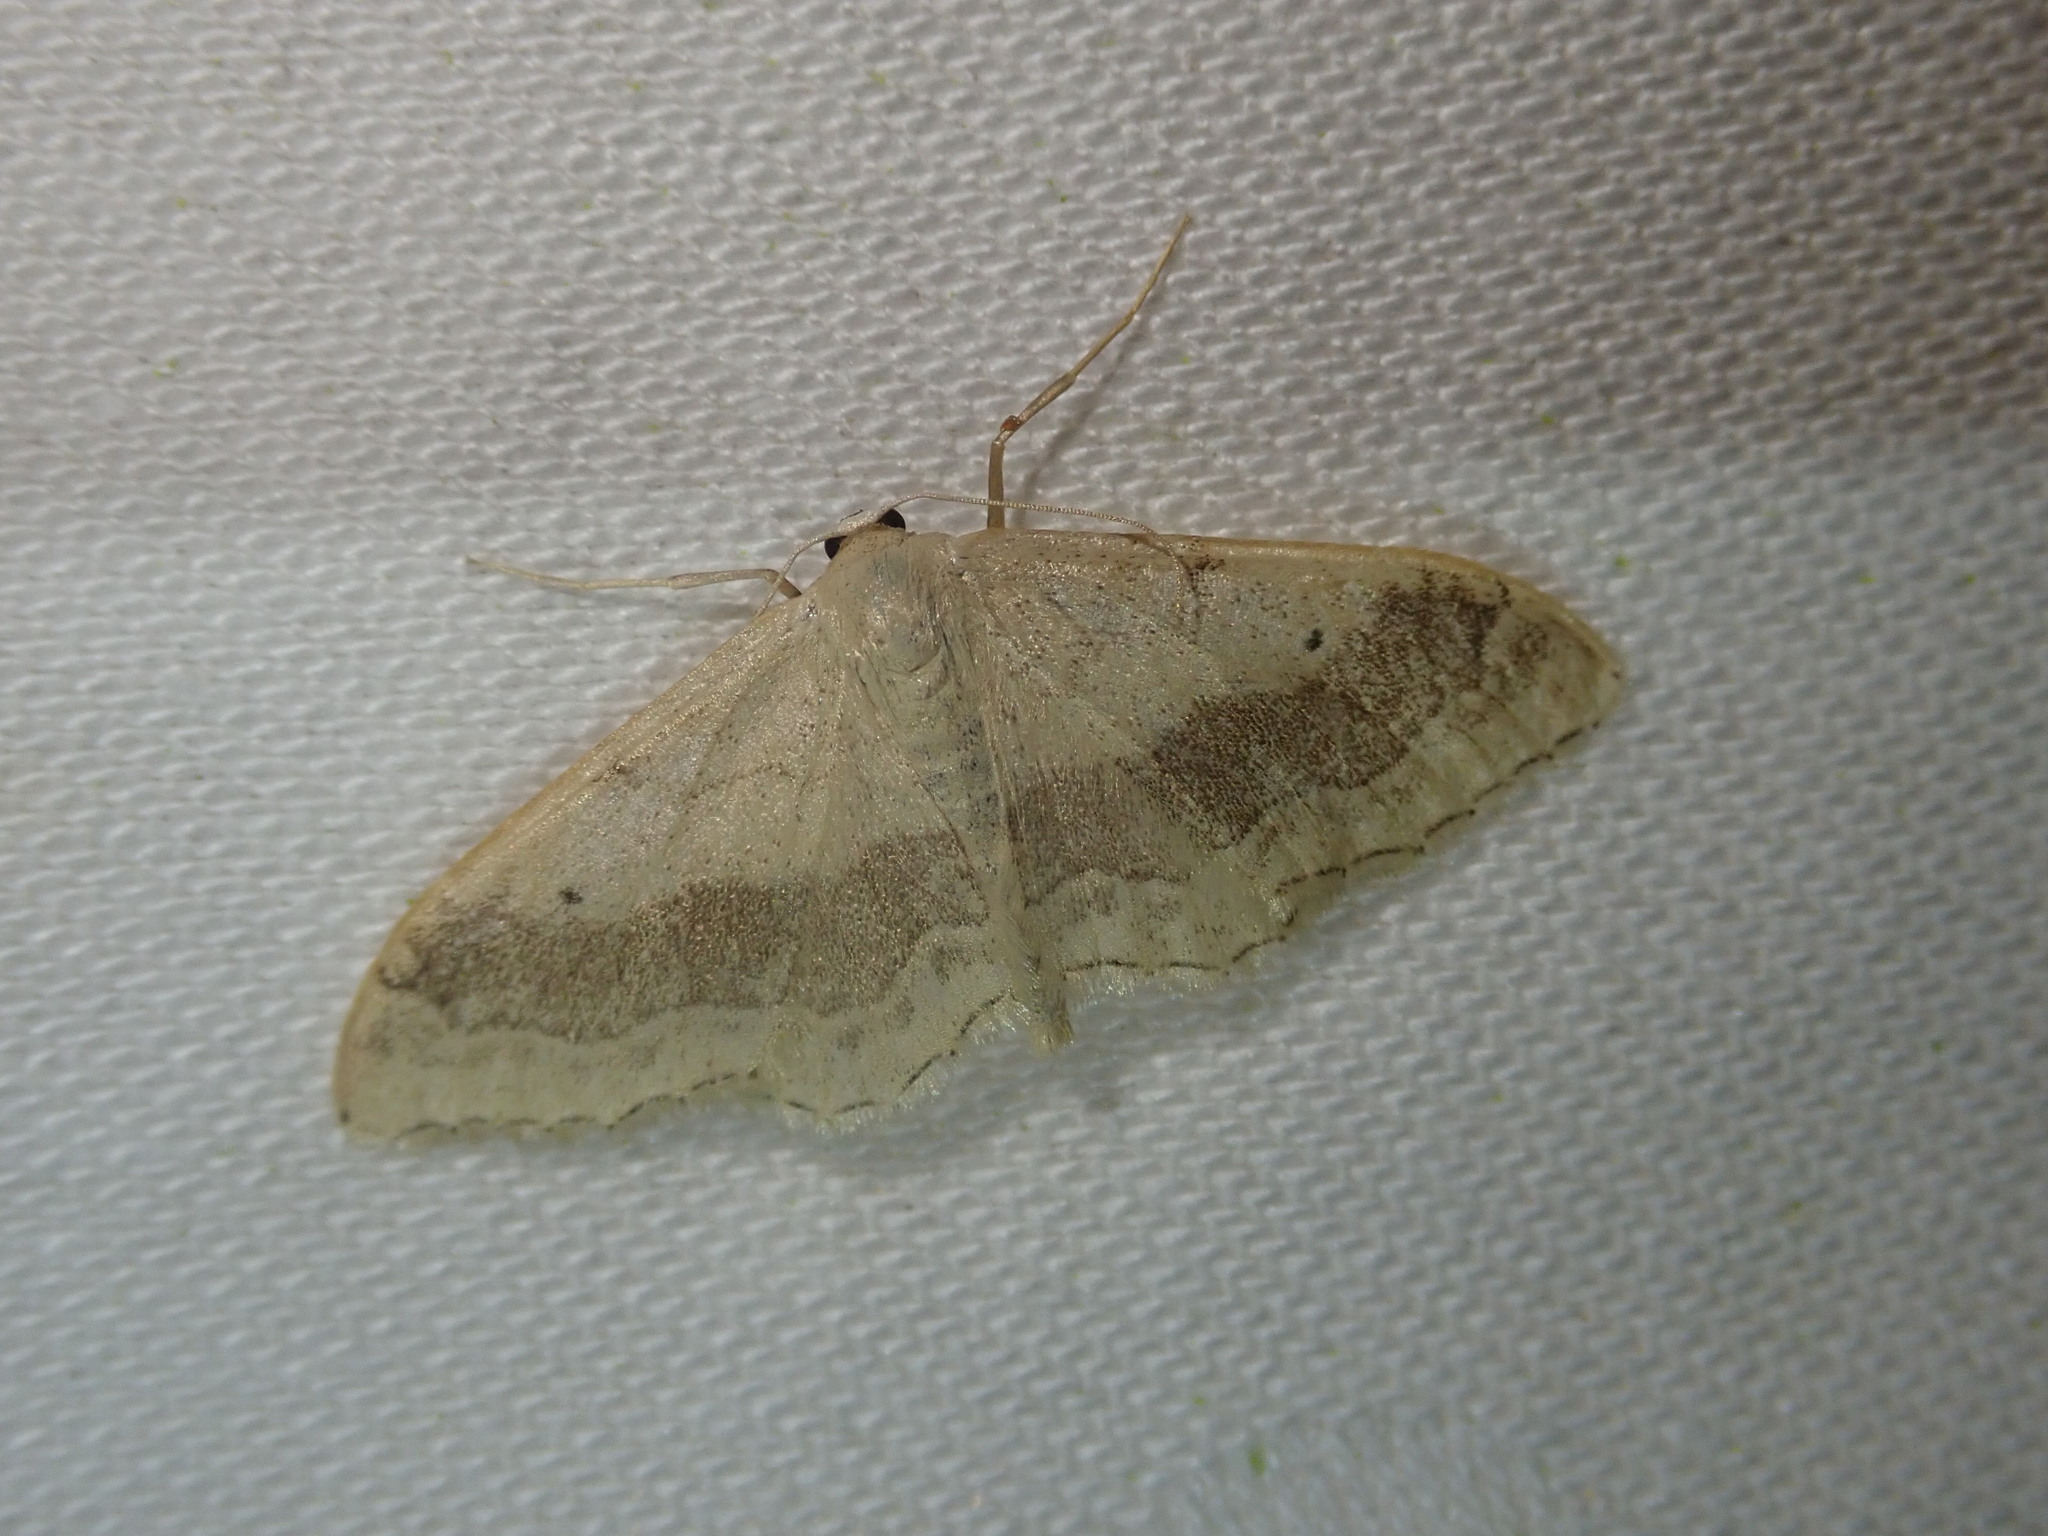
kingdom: Animalia
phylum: Arthropoda
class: Insecta
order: Lepidoptera
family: Geometridae
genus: Idaea
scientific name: Idaea aversata
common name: Riband wave
